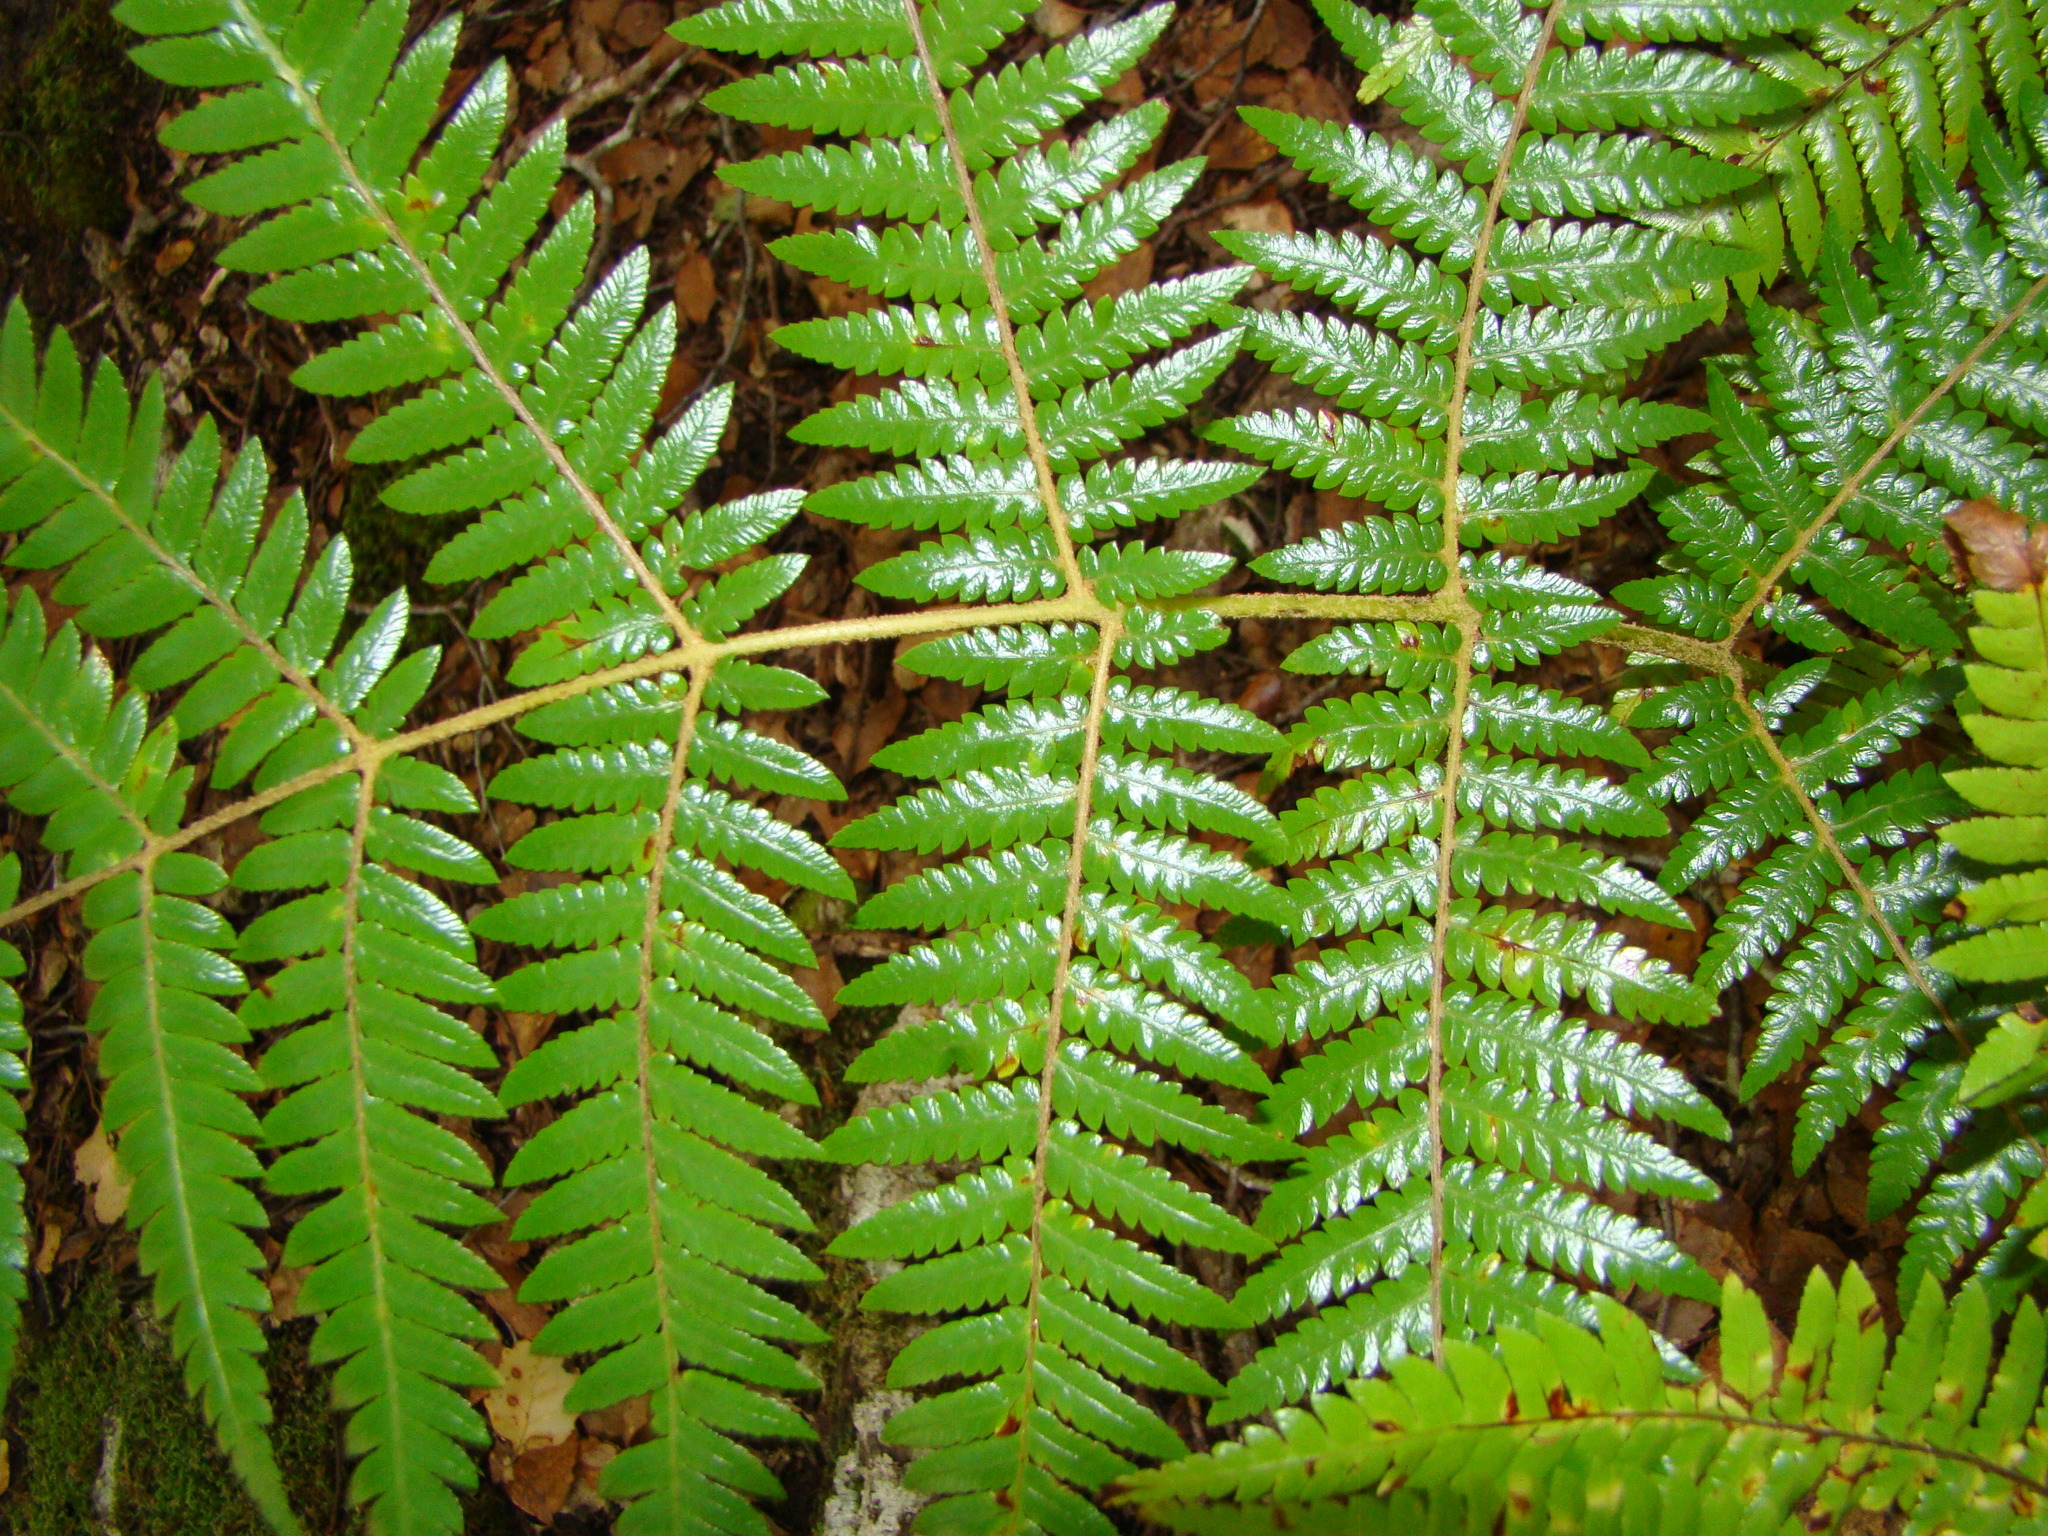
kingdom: Plantae
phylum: Tracheophyta
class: Polypodiopsida
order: Cyatheales
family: Cyatheaceae
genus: Alsophila
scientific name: Alsophila dealbata
